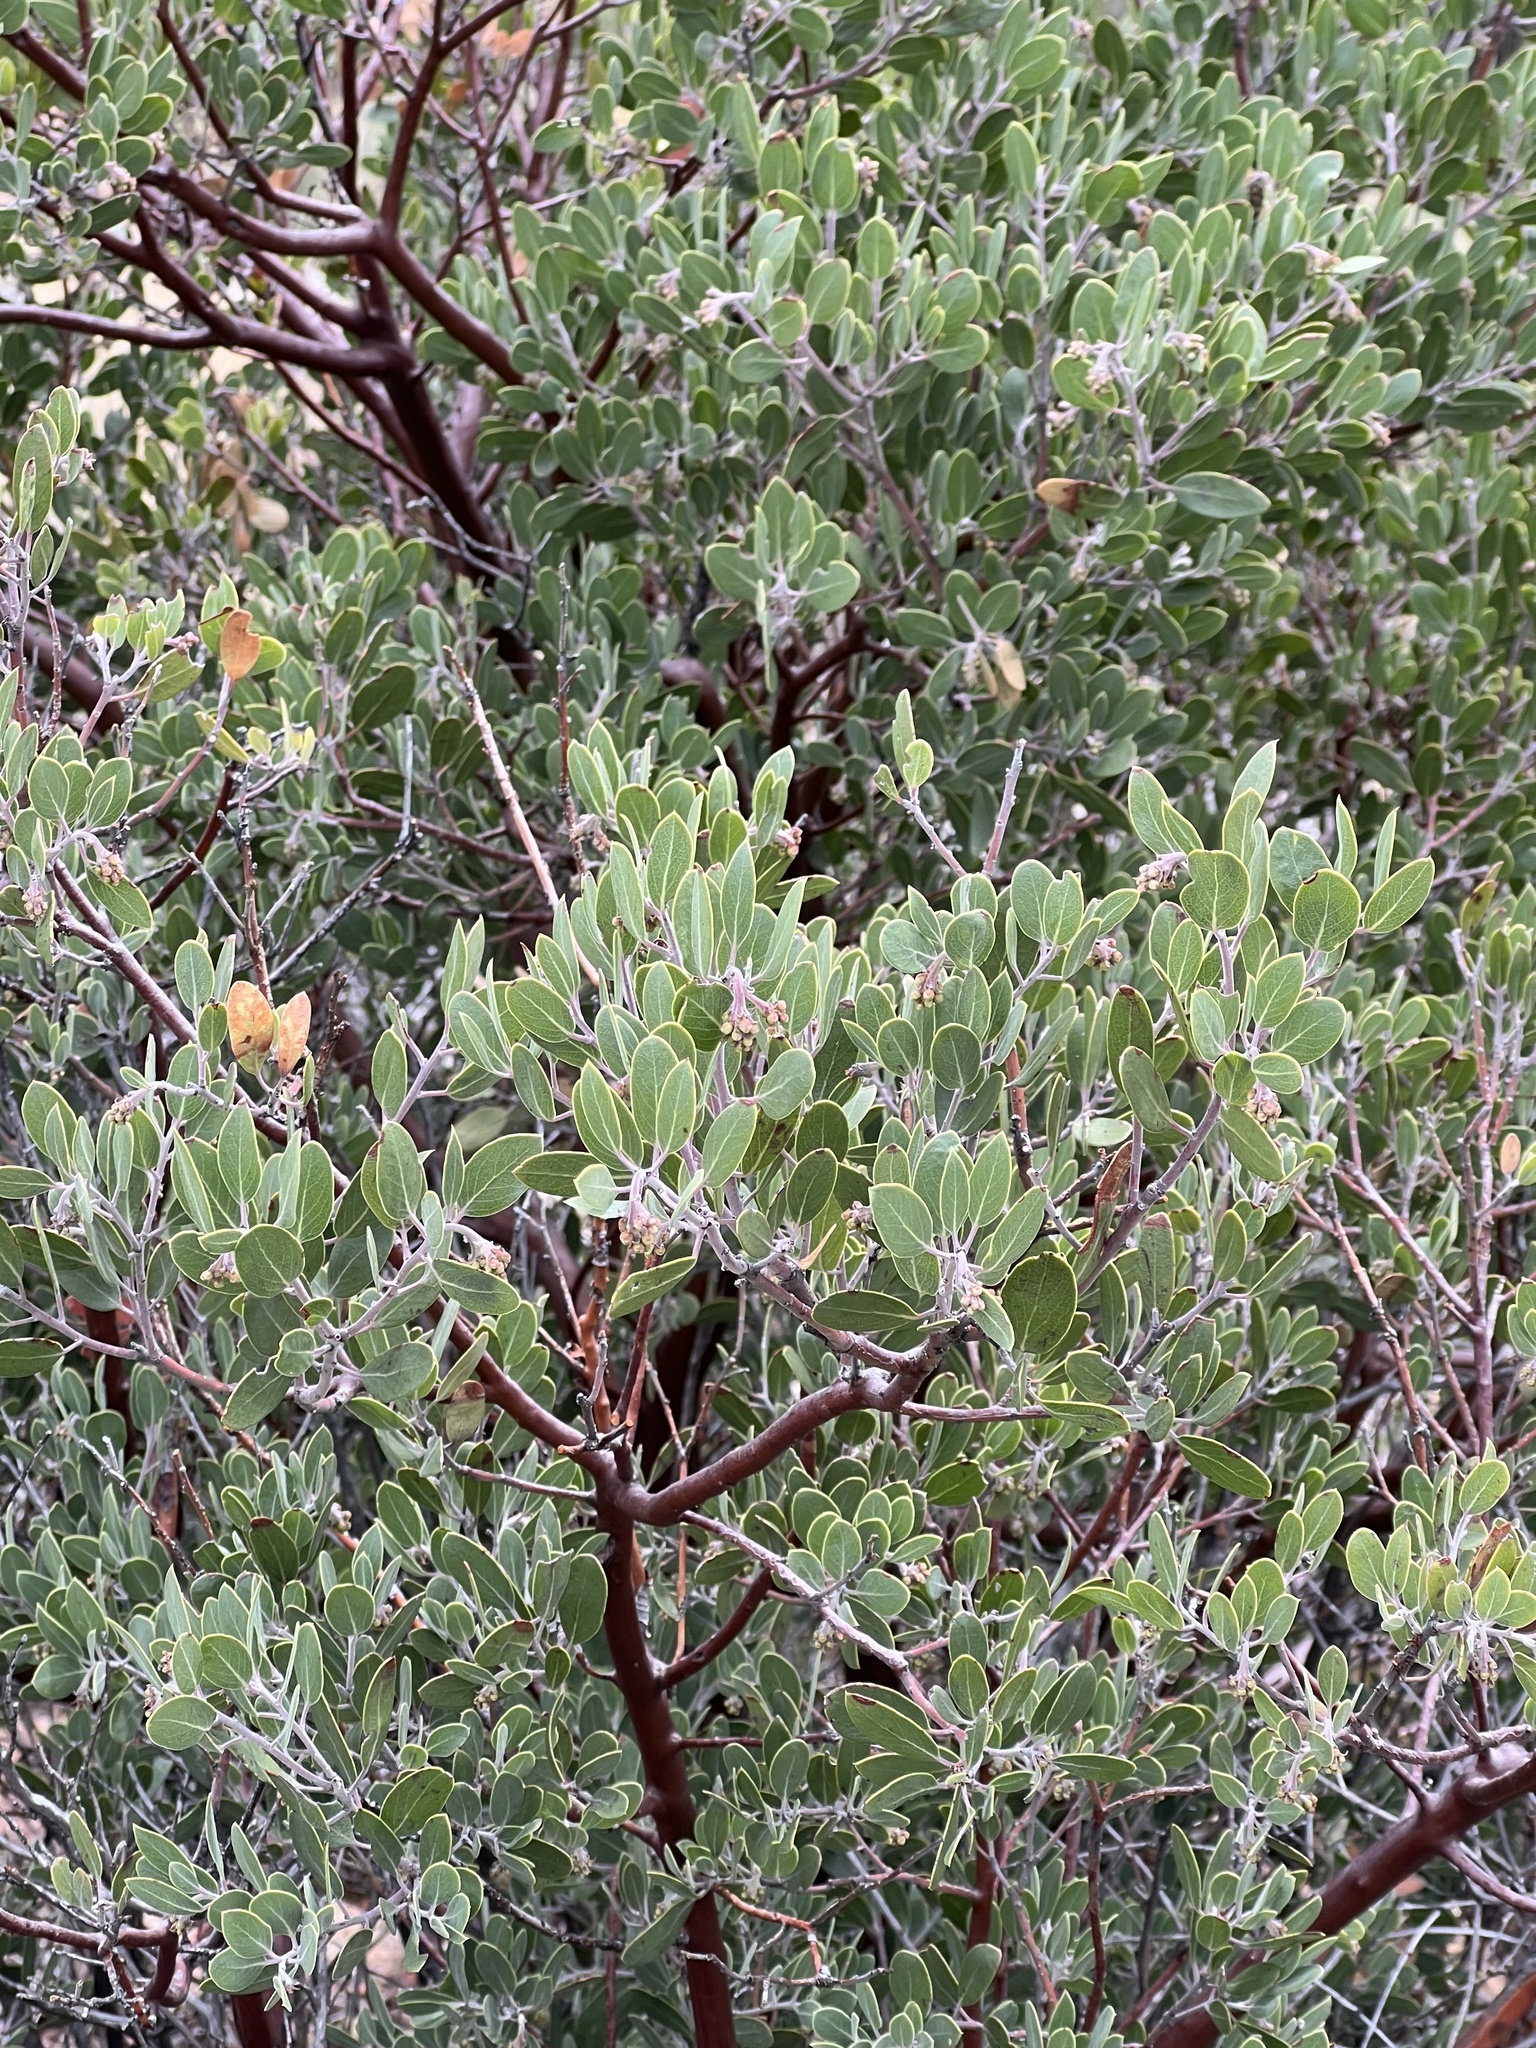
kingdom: Plantae
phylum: Tracheophyta
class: Magnoliopsida
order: Ericales
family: Ericaceae
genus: Arctostaphylos
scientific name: Arctostaphylos pungens
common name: Mexican manzanita
